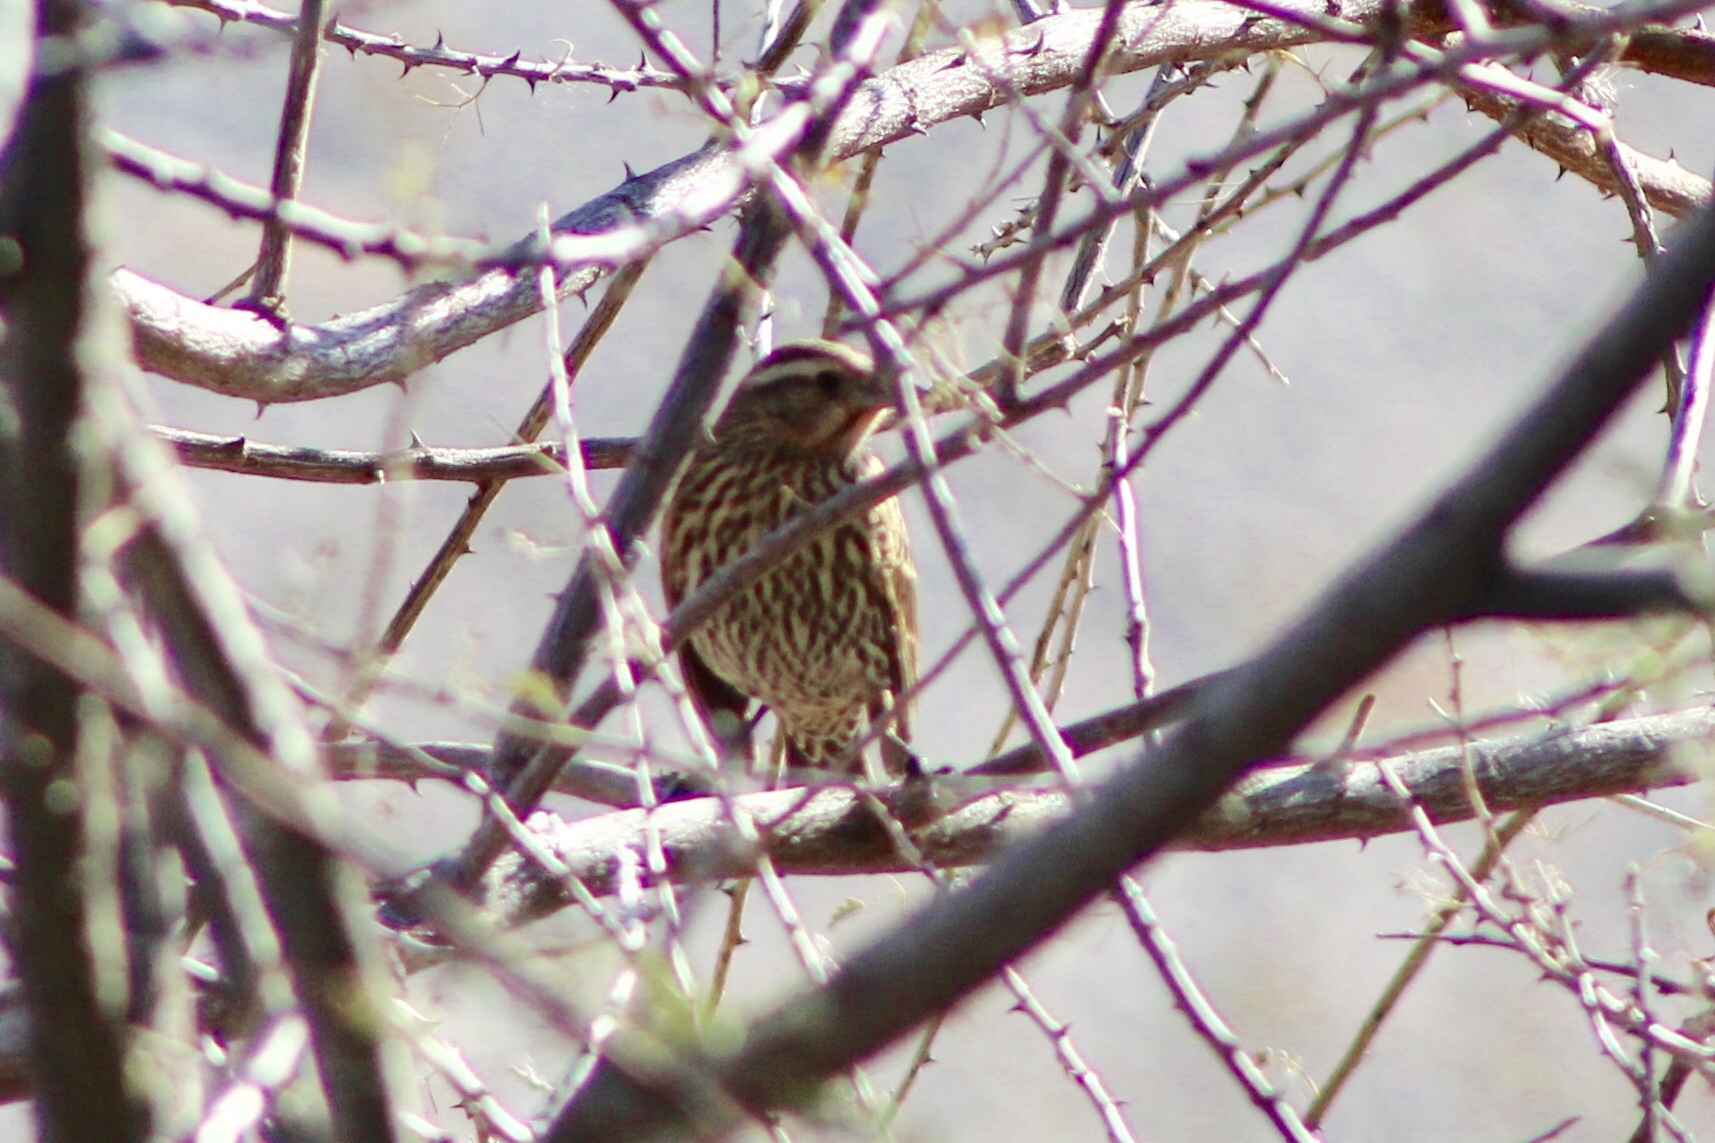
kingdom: Animalia
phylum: Chordata
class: Aves
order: Passeriformes
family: Icteridae
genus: Agelaius
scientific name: Agelaius phoeniceus
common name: Red-winged blackbird
